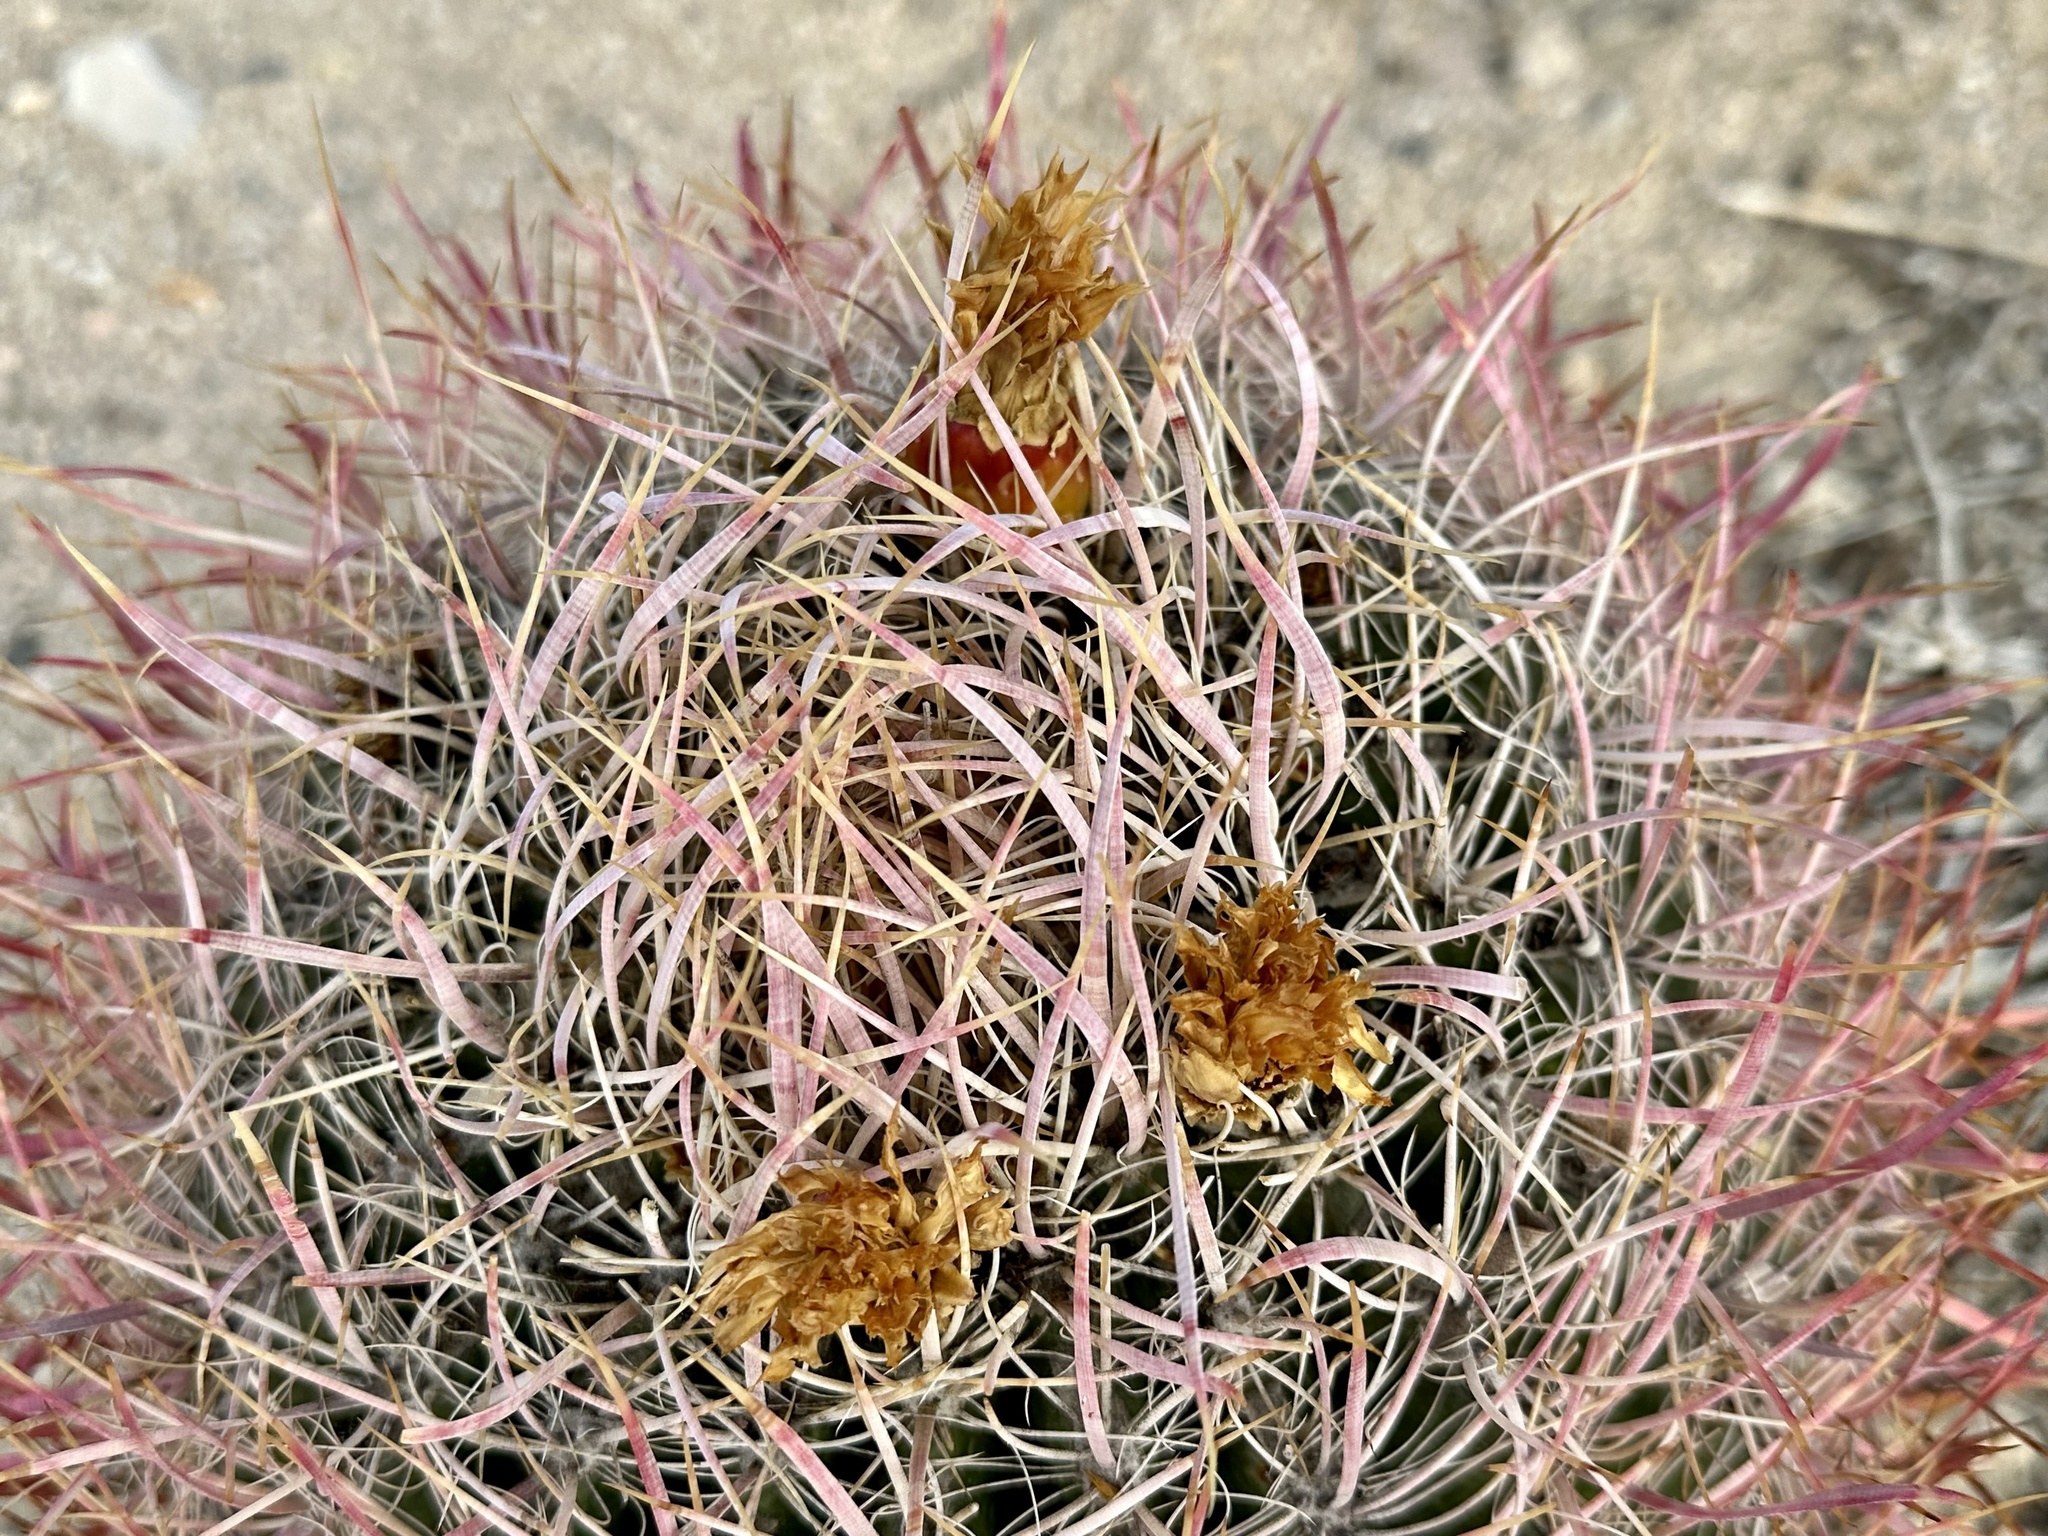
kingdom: Plantae
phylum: Tracheophyta
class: Magnoliopsida
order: Caryophyllales
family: Cactaceae
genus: Ferocactus
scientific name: Ferocactus cylindraceus
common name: California barrel cactus
